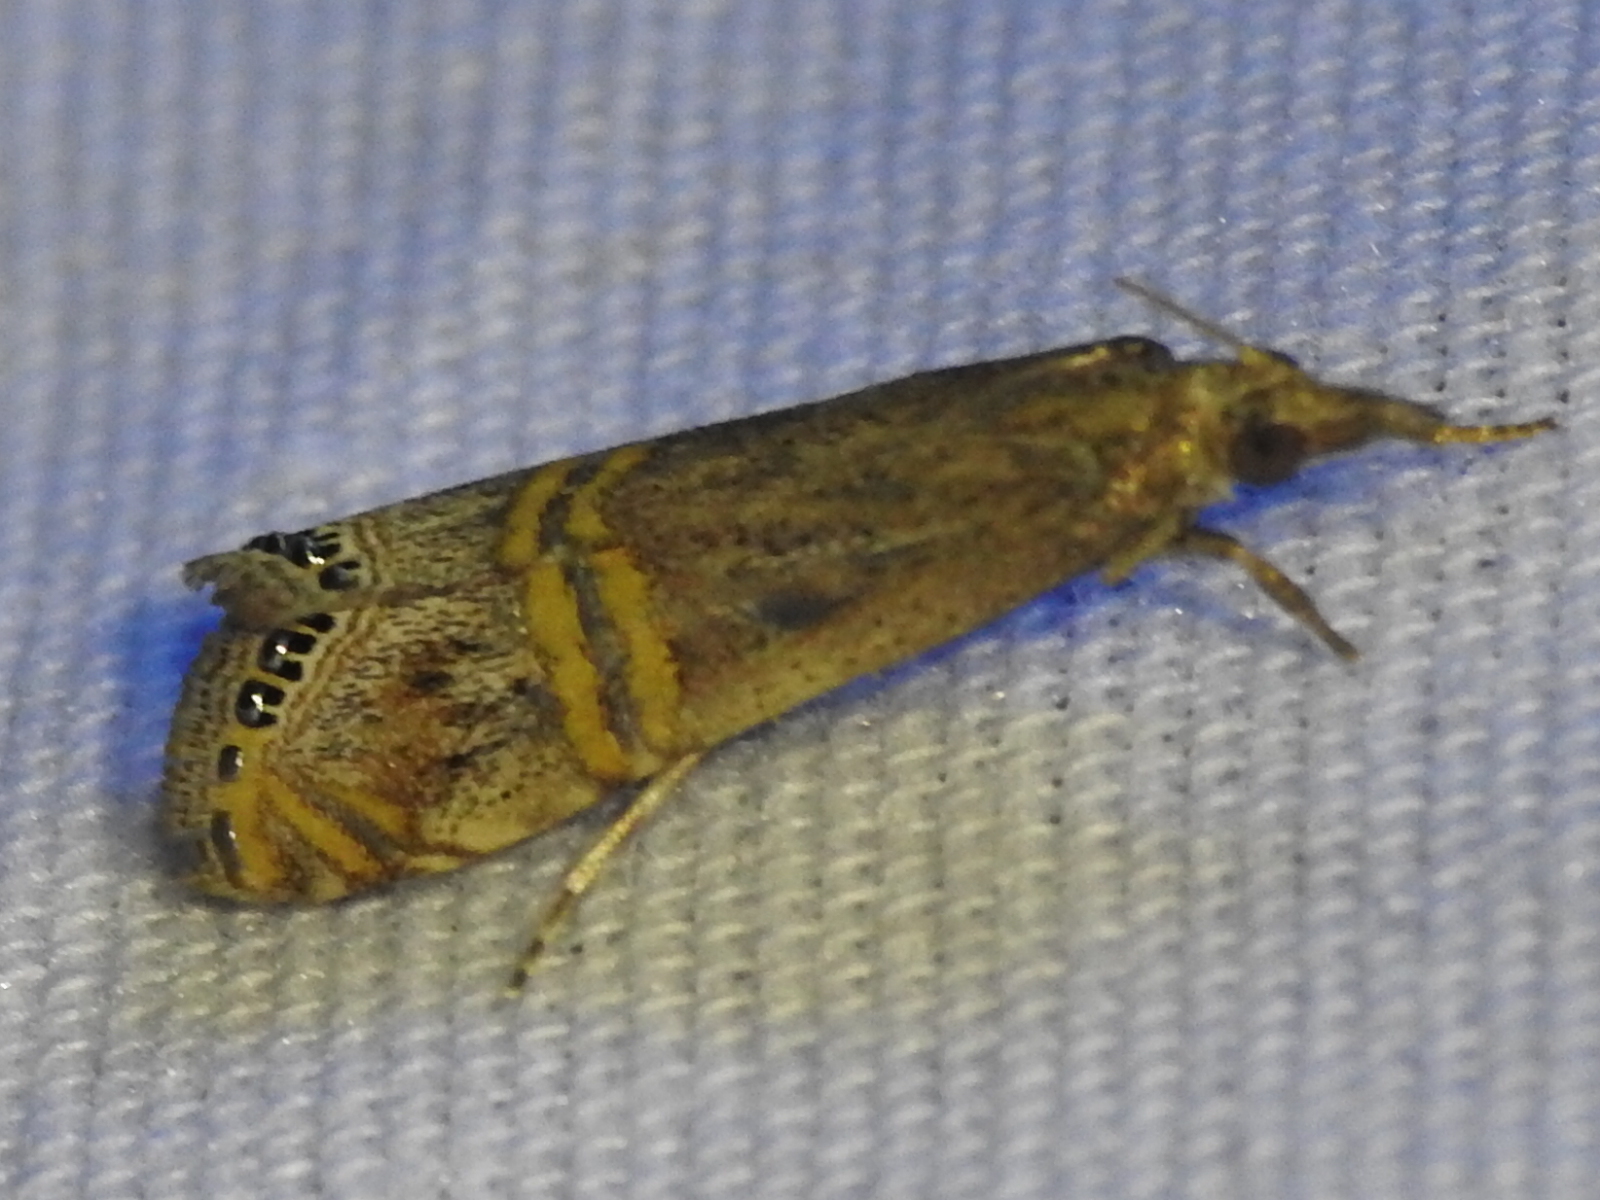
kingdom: Animalia
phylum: Arthropoda
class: Insecta
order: Lepidoptera
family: Crambidae
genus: Euchromius
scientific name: Euchromius ocellea
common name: Necklace veneer moth
